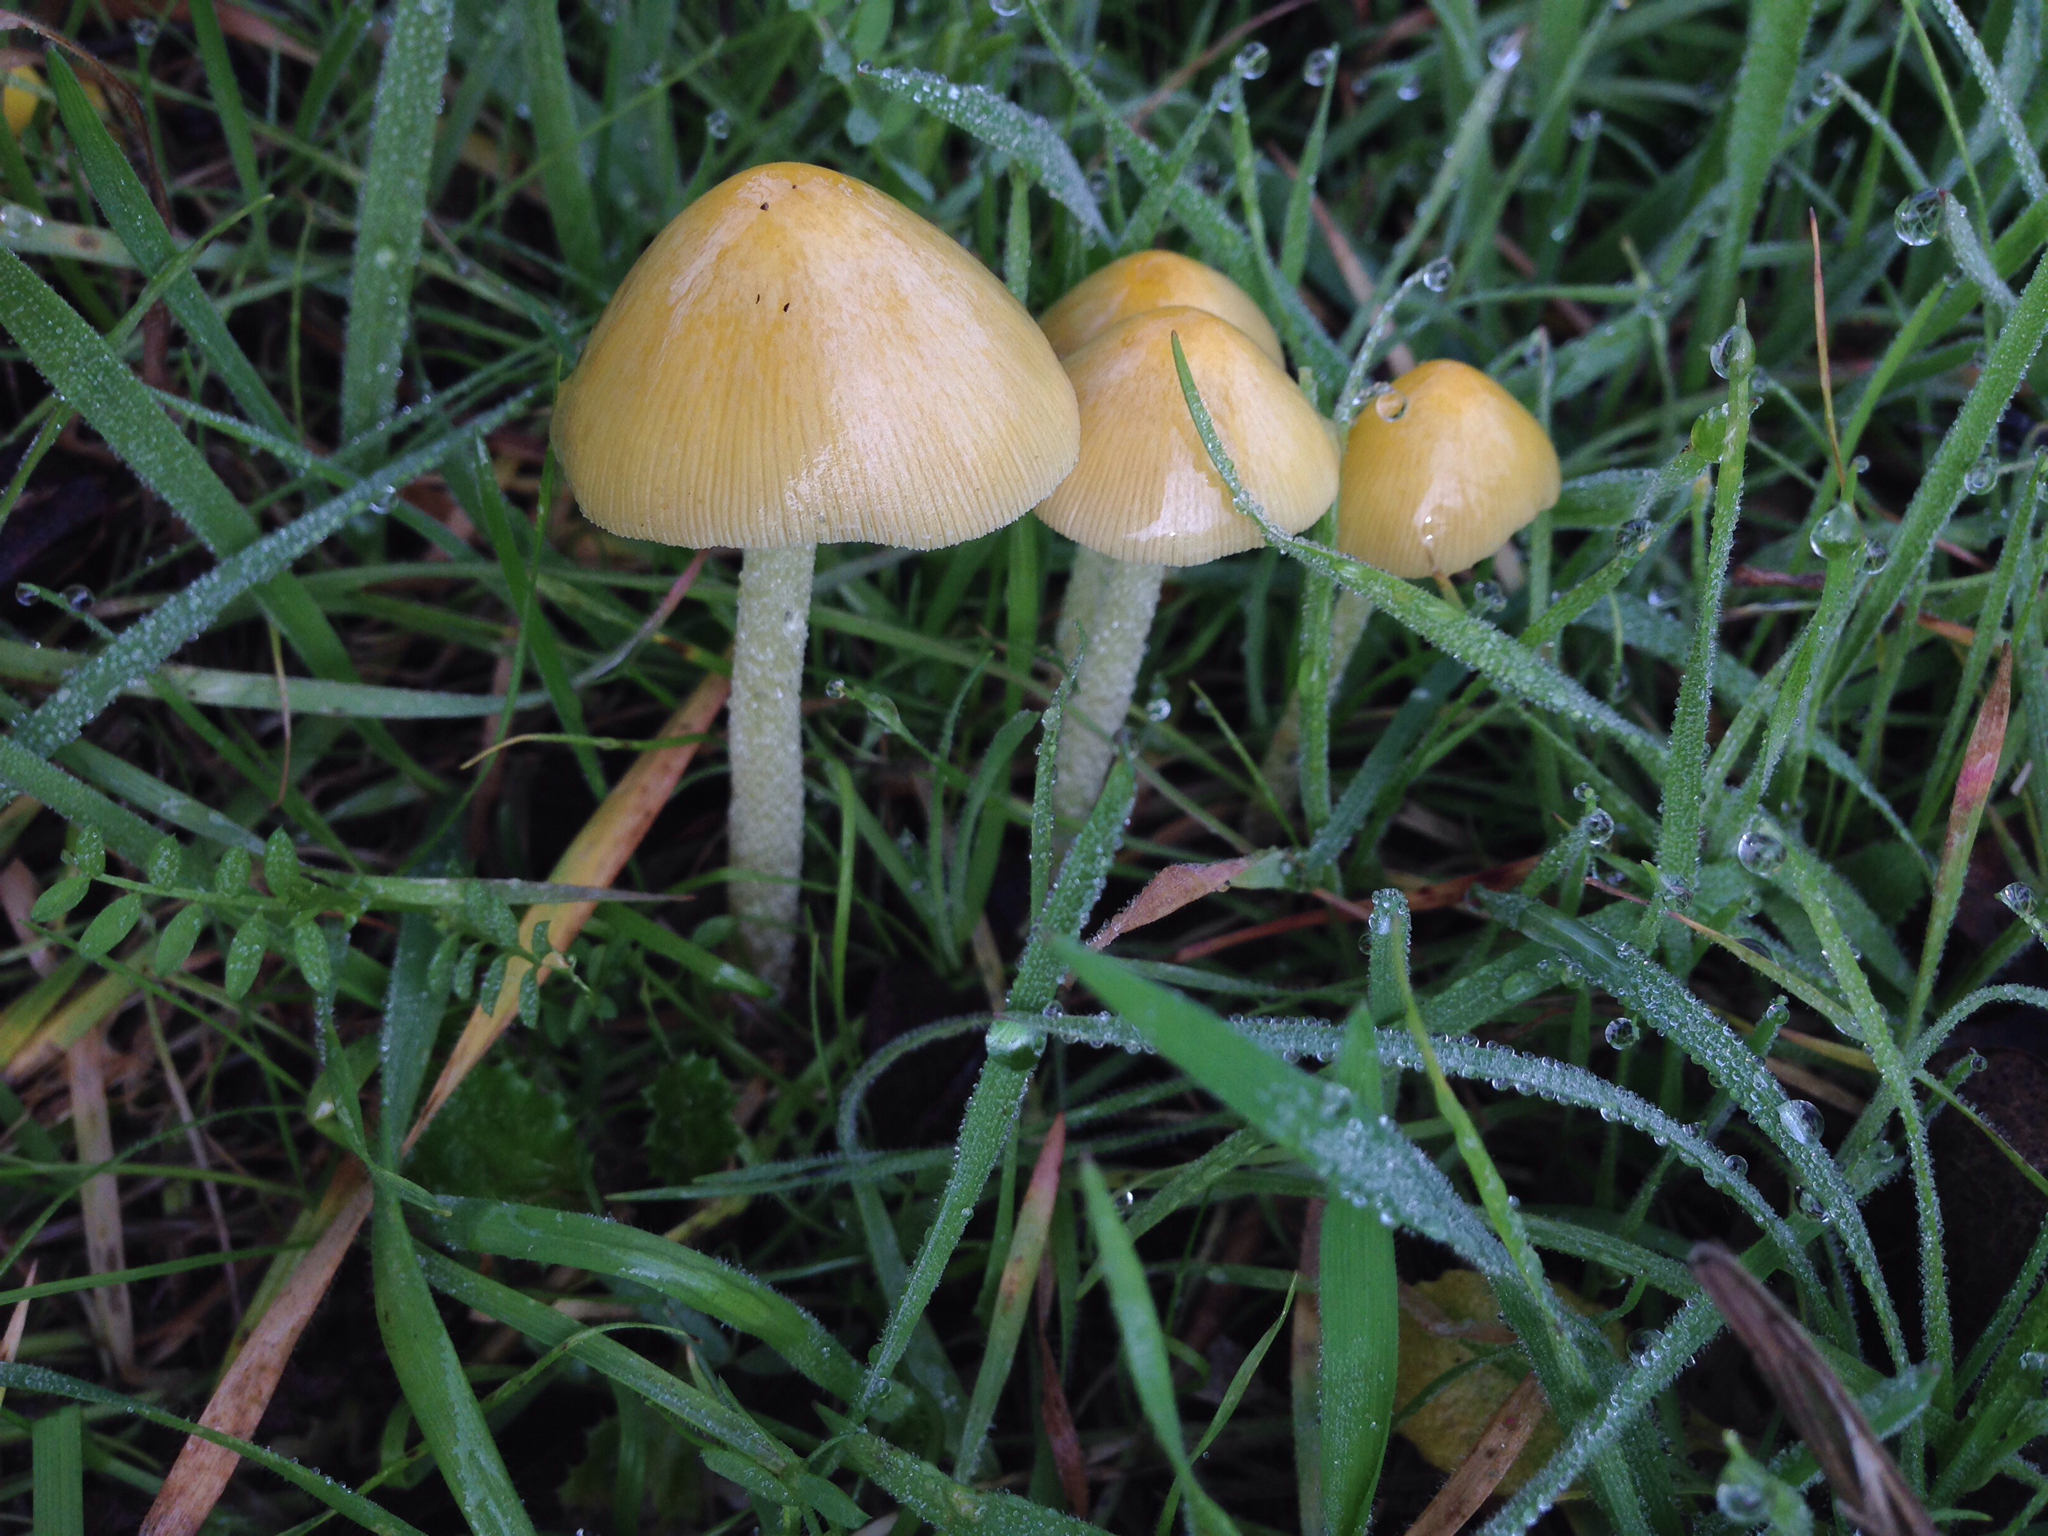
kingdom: Fungi
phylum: Basidiomycota
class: Agaricomycetes
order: Agaricales
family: Bolbitiaceae
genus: Bolbitius
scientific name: Bolbitius titubans
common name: Yellow fieldcap
